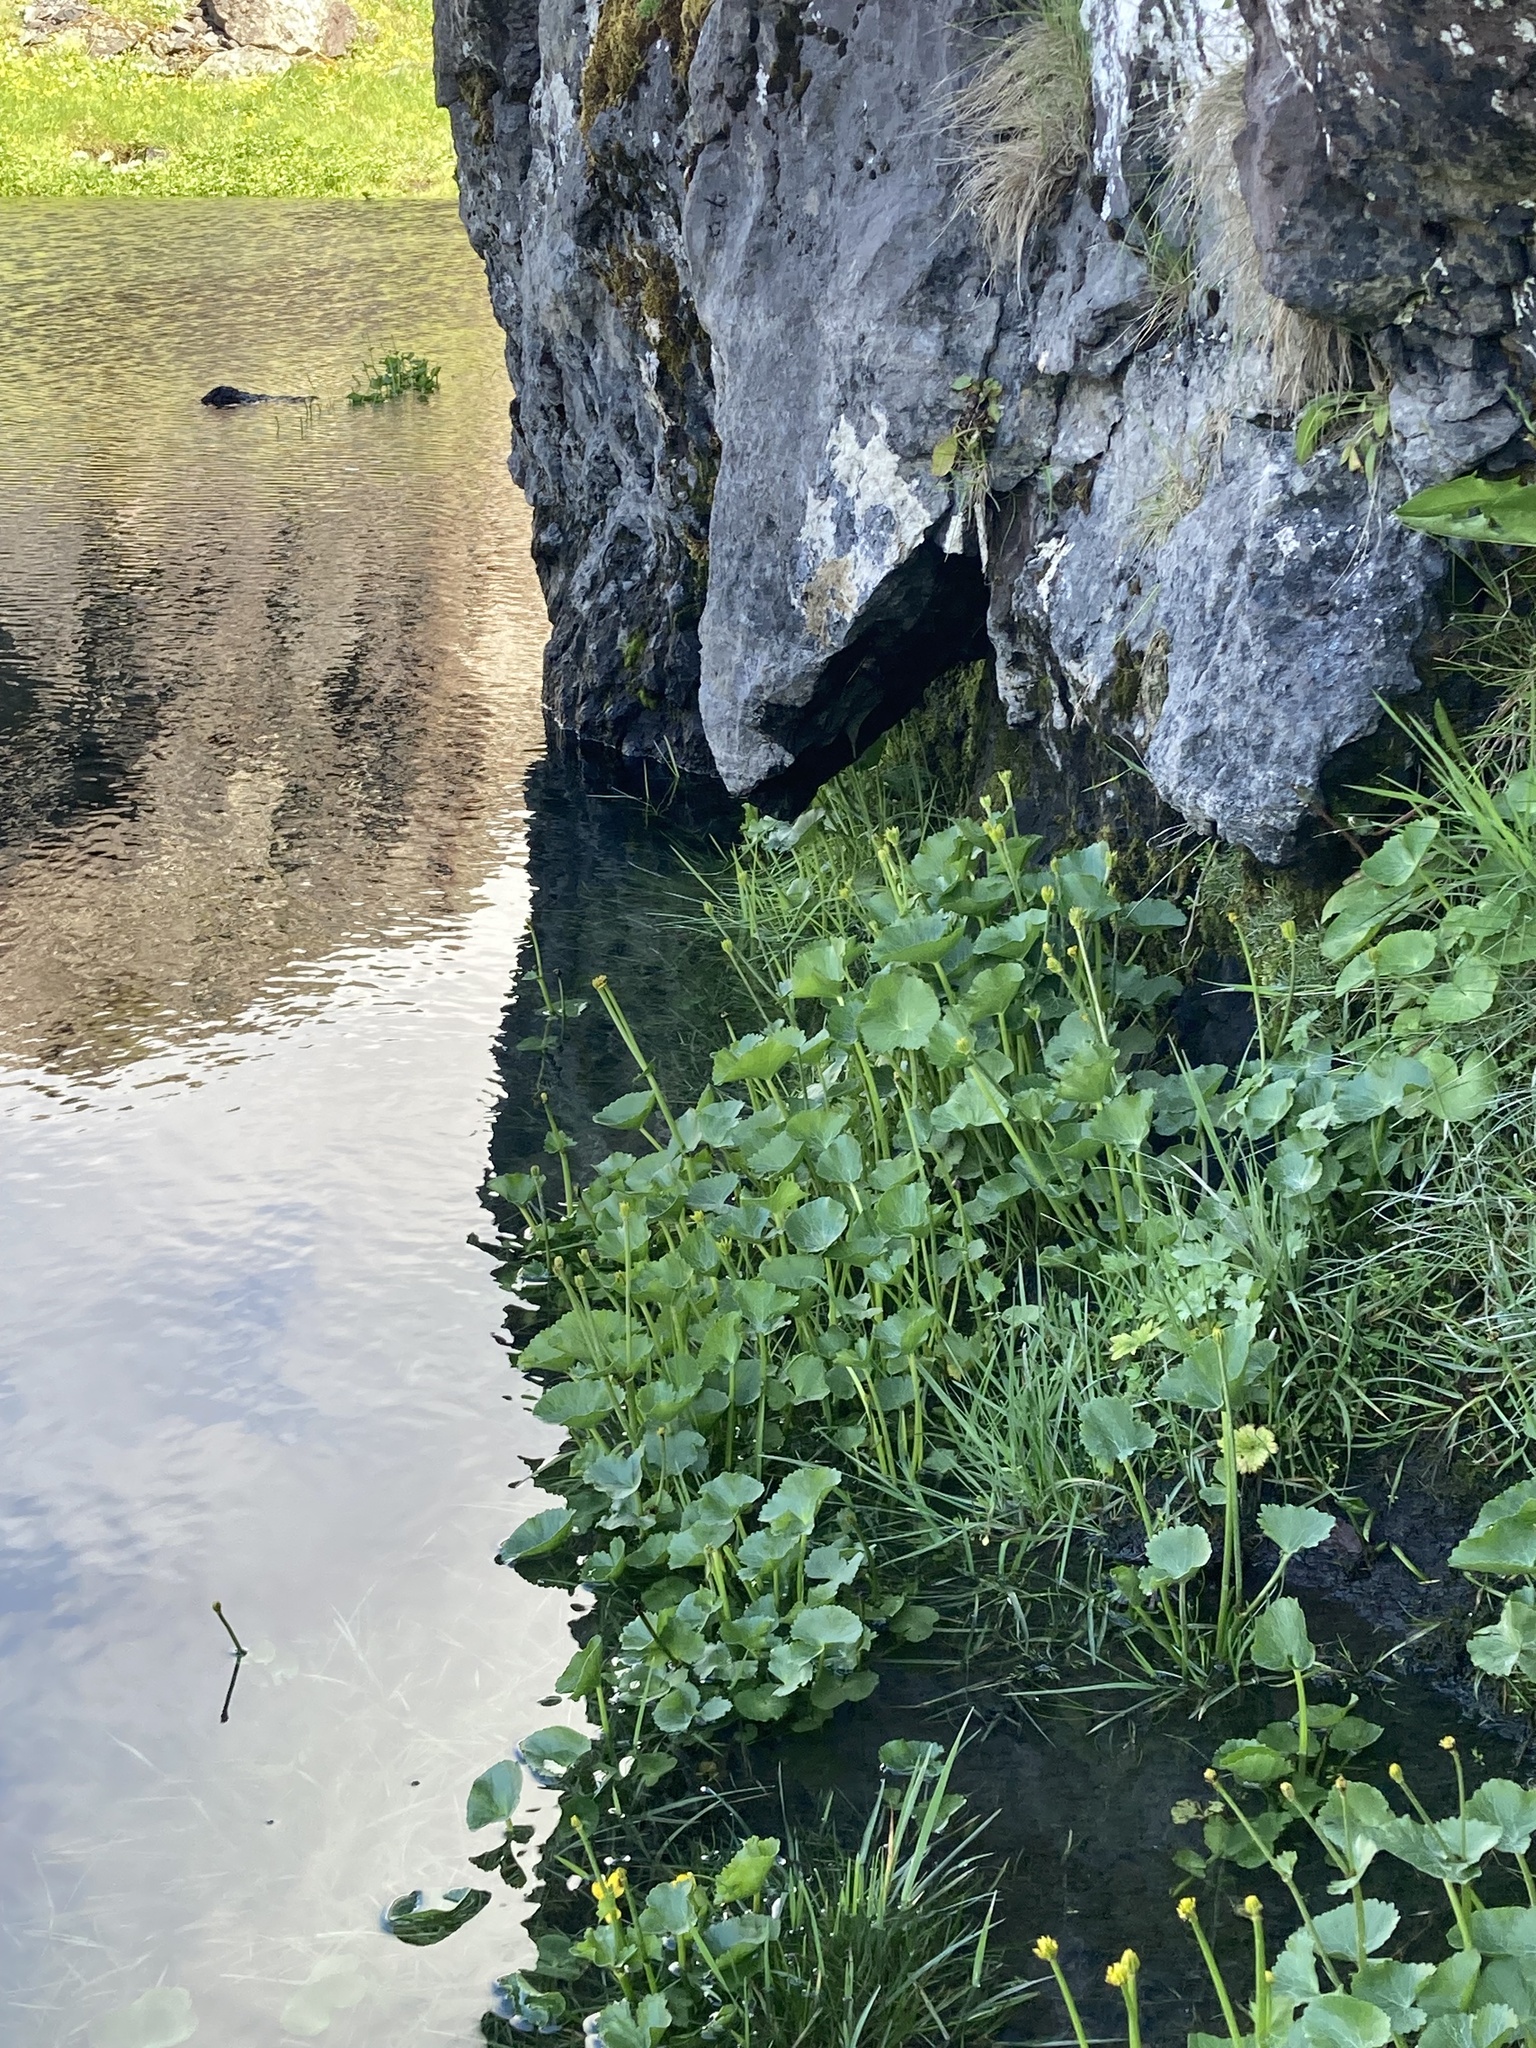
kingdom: Plantae
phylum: Tracheophyta
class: Magnoliopsida
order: Ranunculales
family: Ranunculaceae
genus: Caltha
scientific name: Caltha palustris
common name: Marsh marigold
